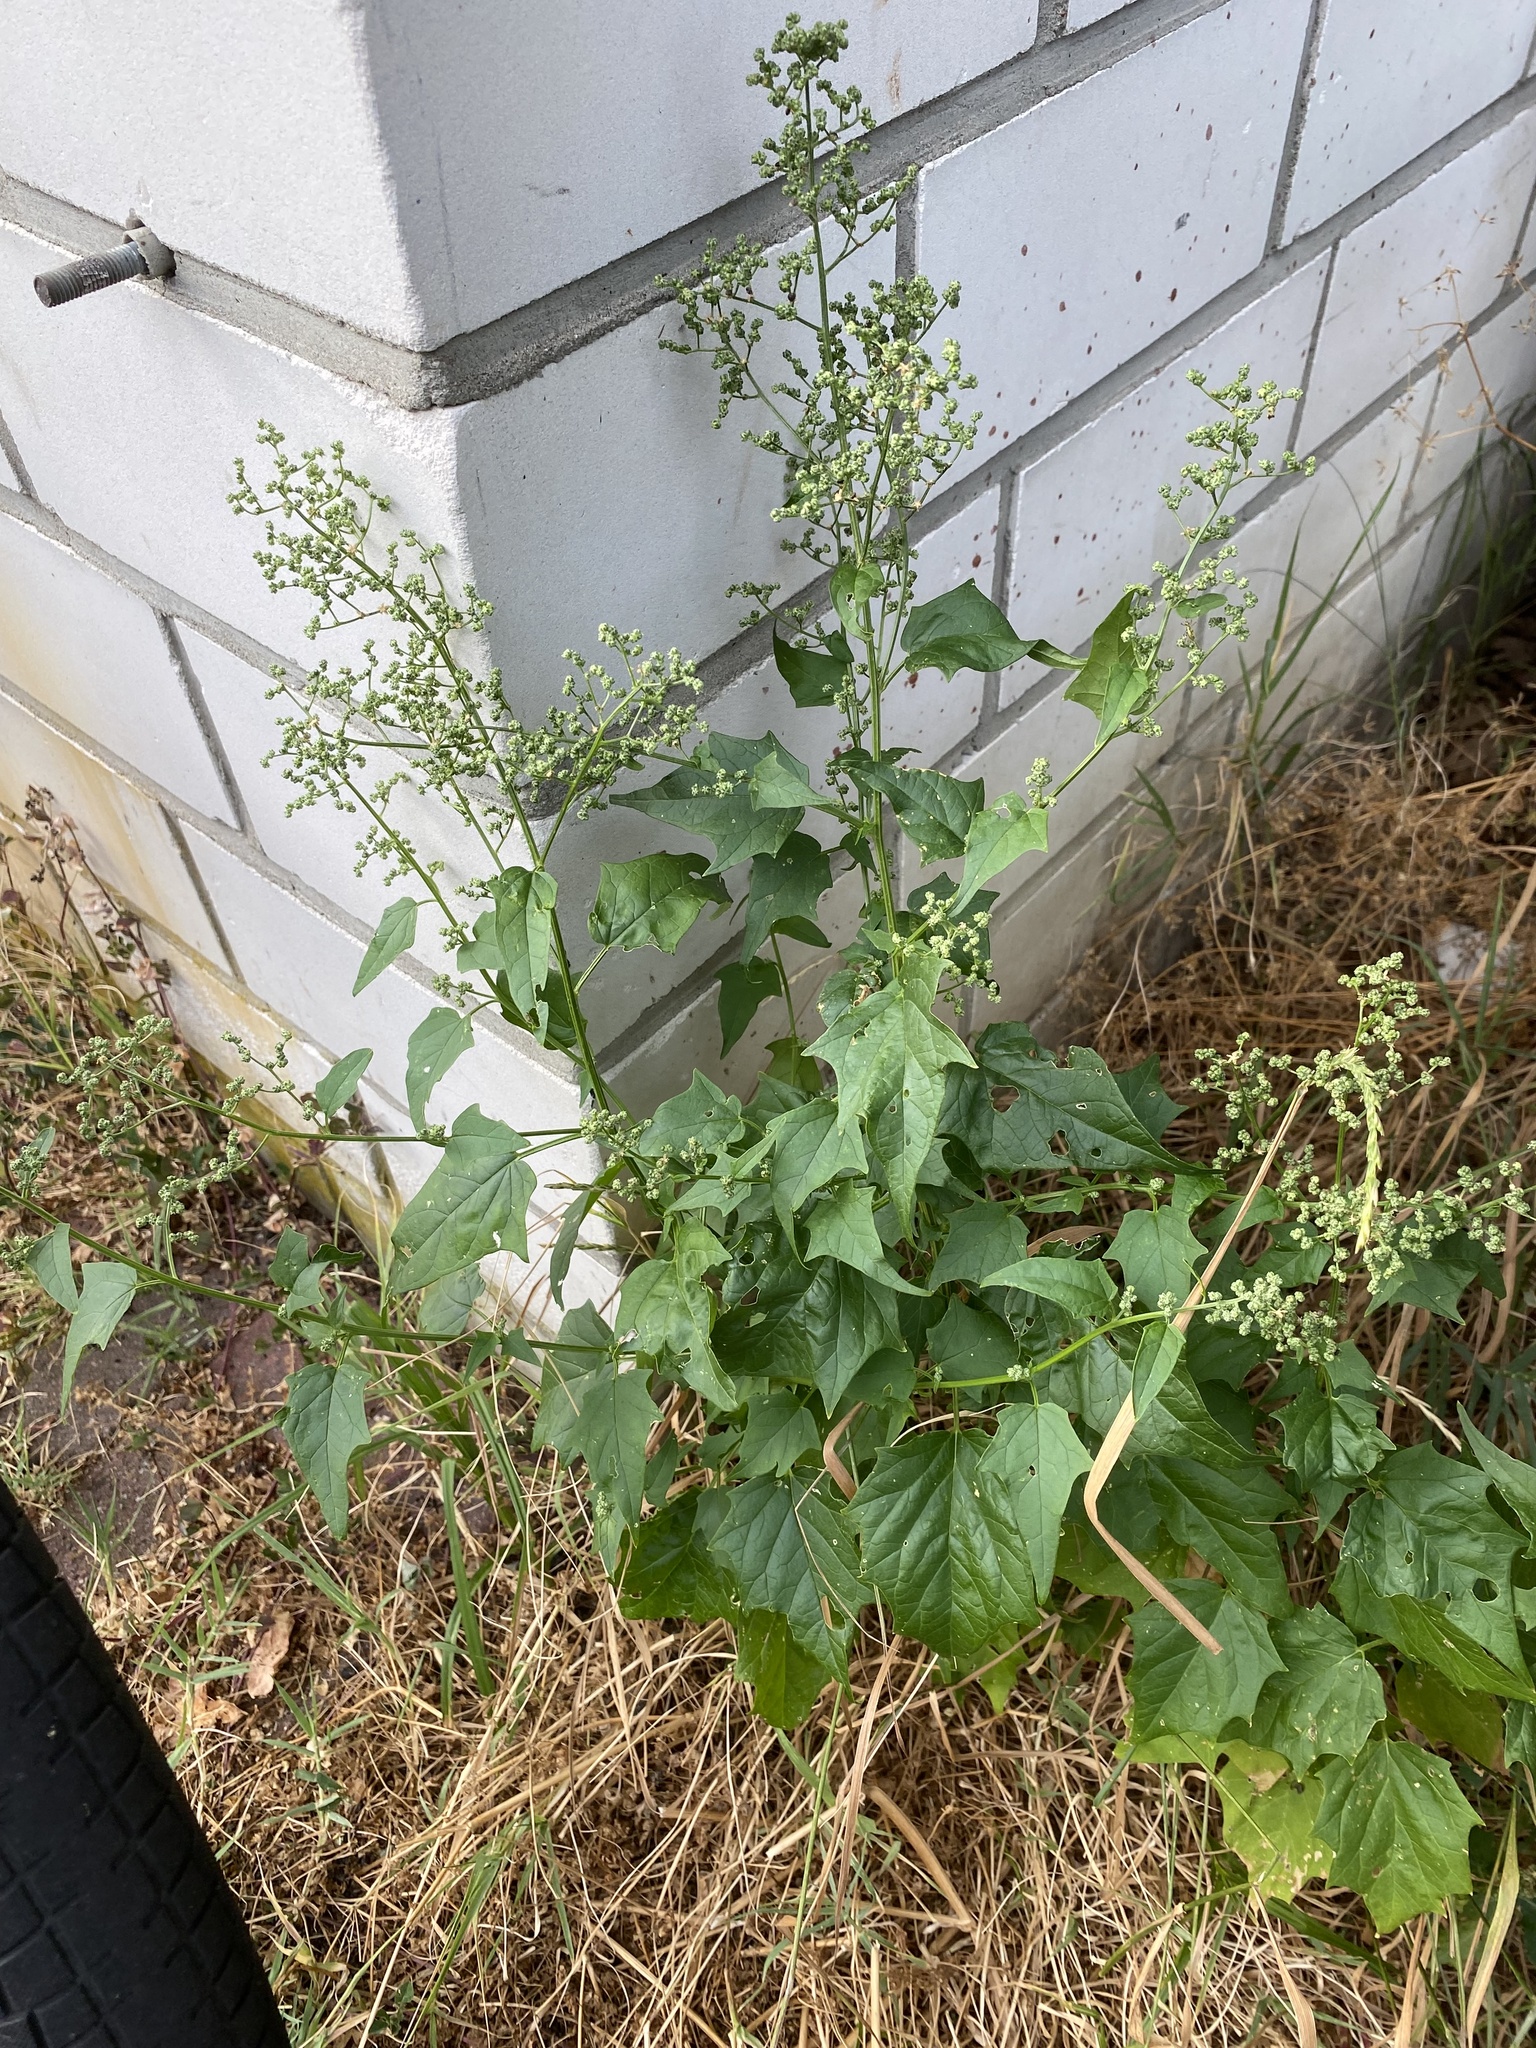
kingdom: Plantae
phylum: Tracheophyta
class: Magnoliopsida
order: Caryophyllales
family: Amaranthaceae
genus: Chenopodiastrum
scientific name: Chenopodiastrum hybridum
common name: Mapleleaf goosefoot
